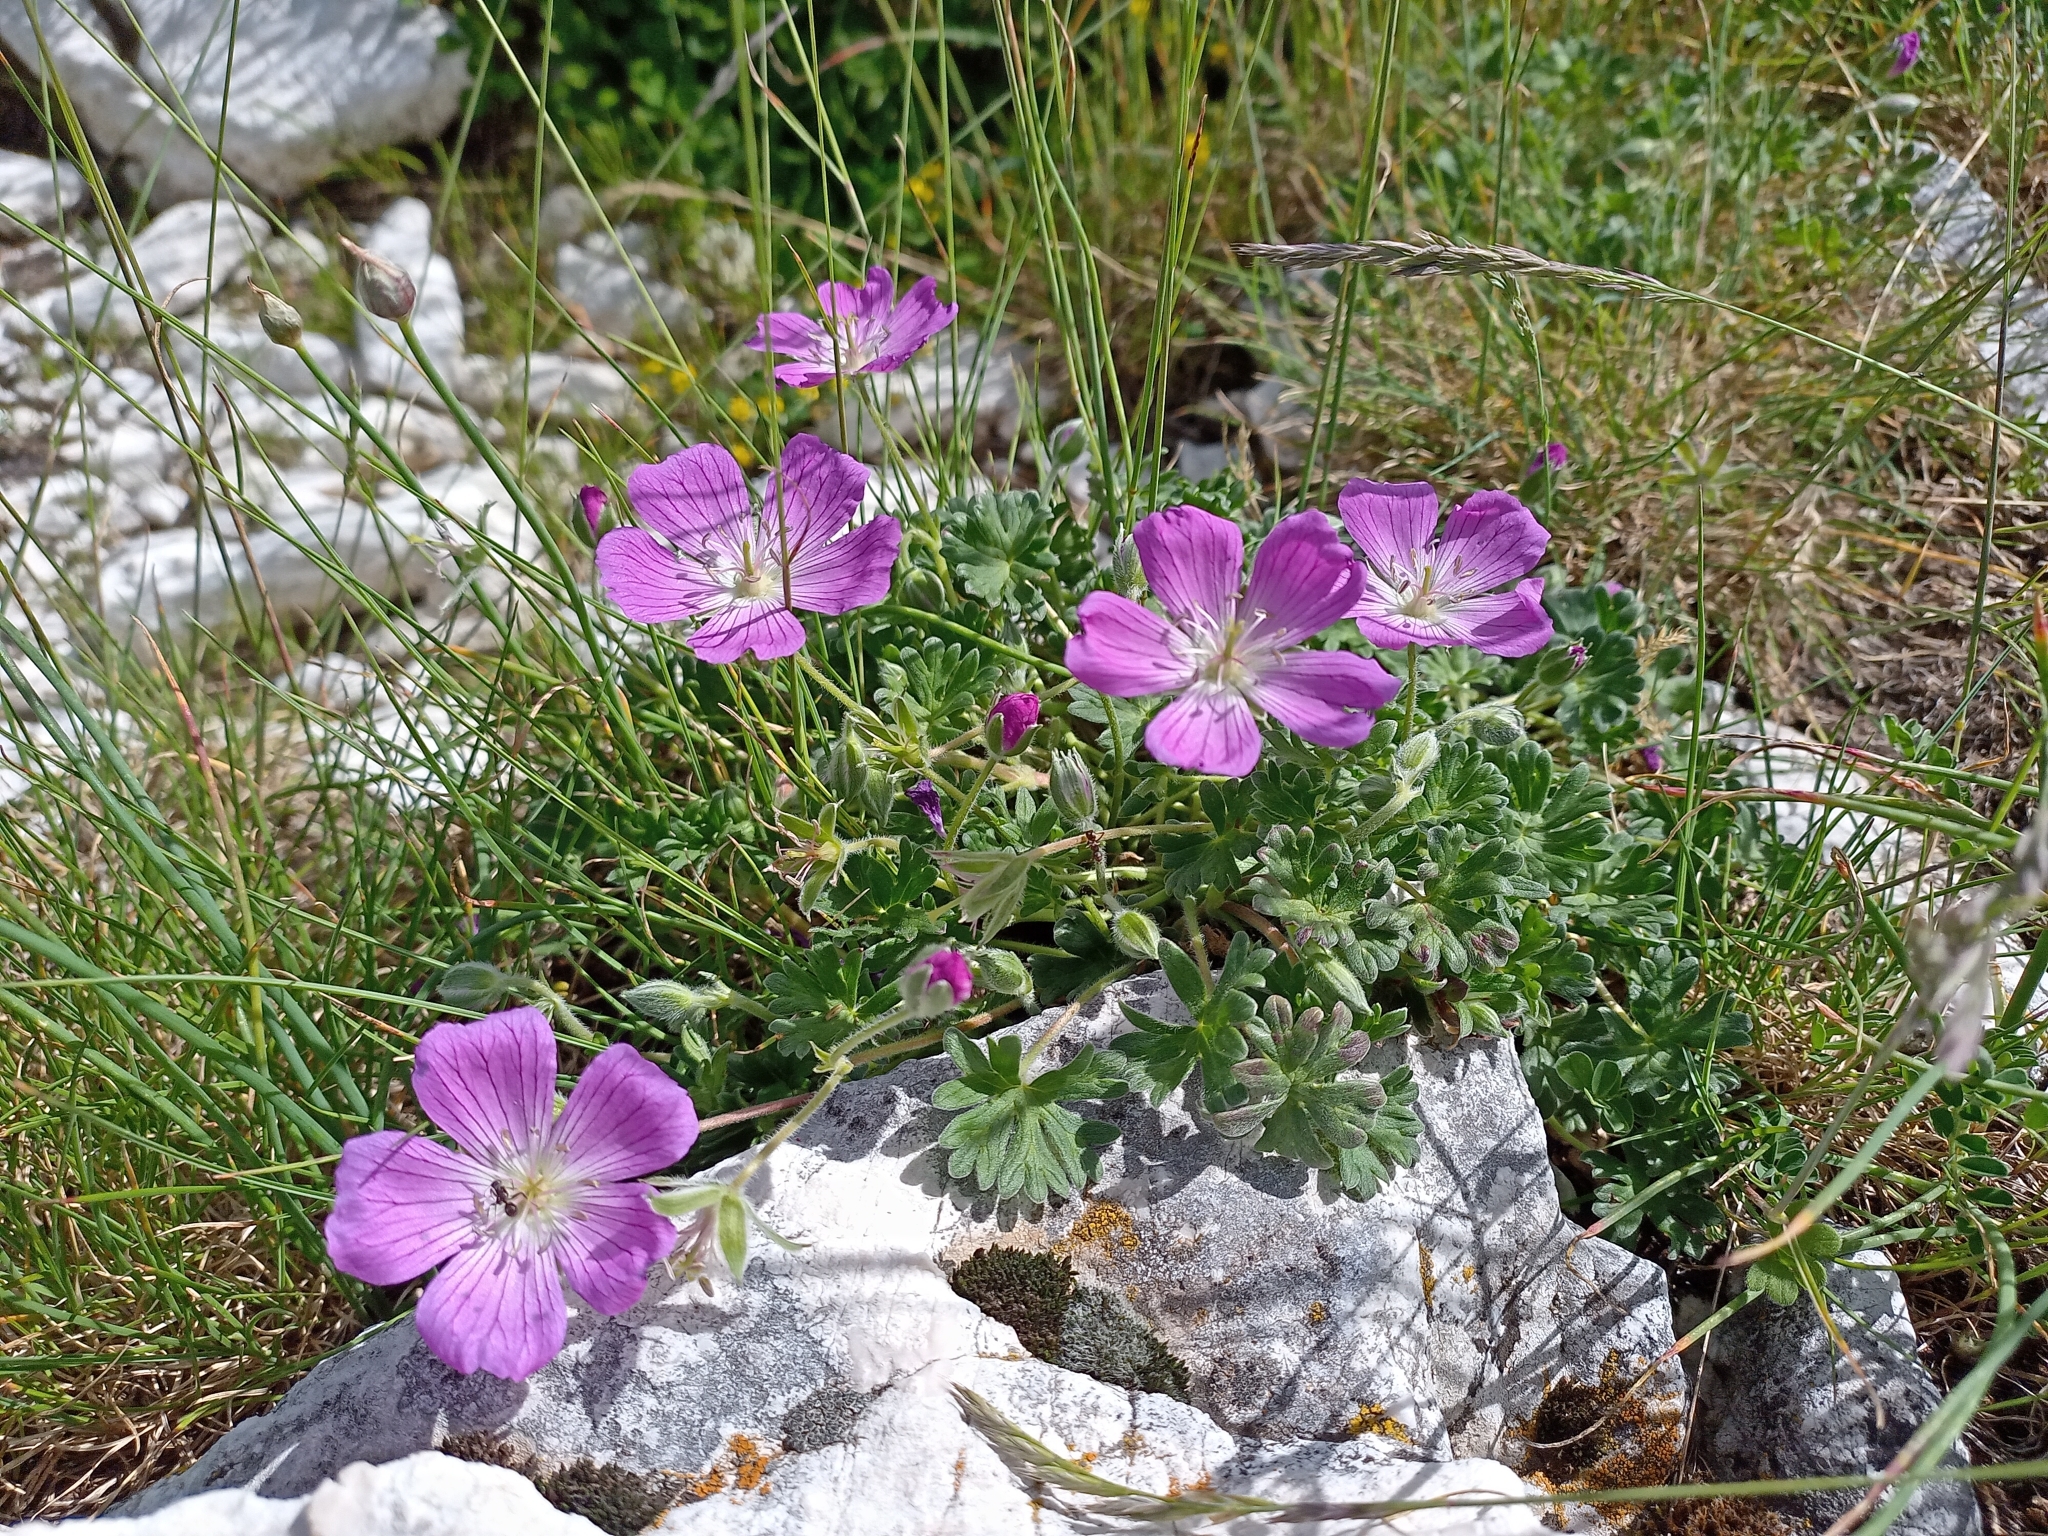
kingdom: Plantae
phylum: Tracheophyta
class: Magnoliopsida
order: Geraniales
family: Geraniaceae
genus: Geranium
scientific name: Geranium austroapenninum
